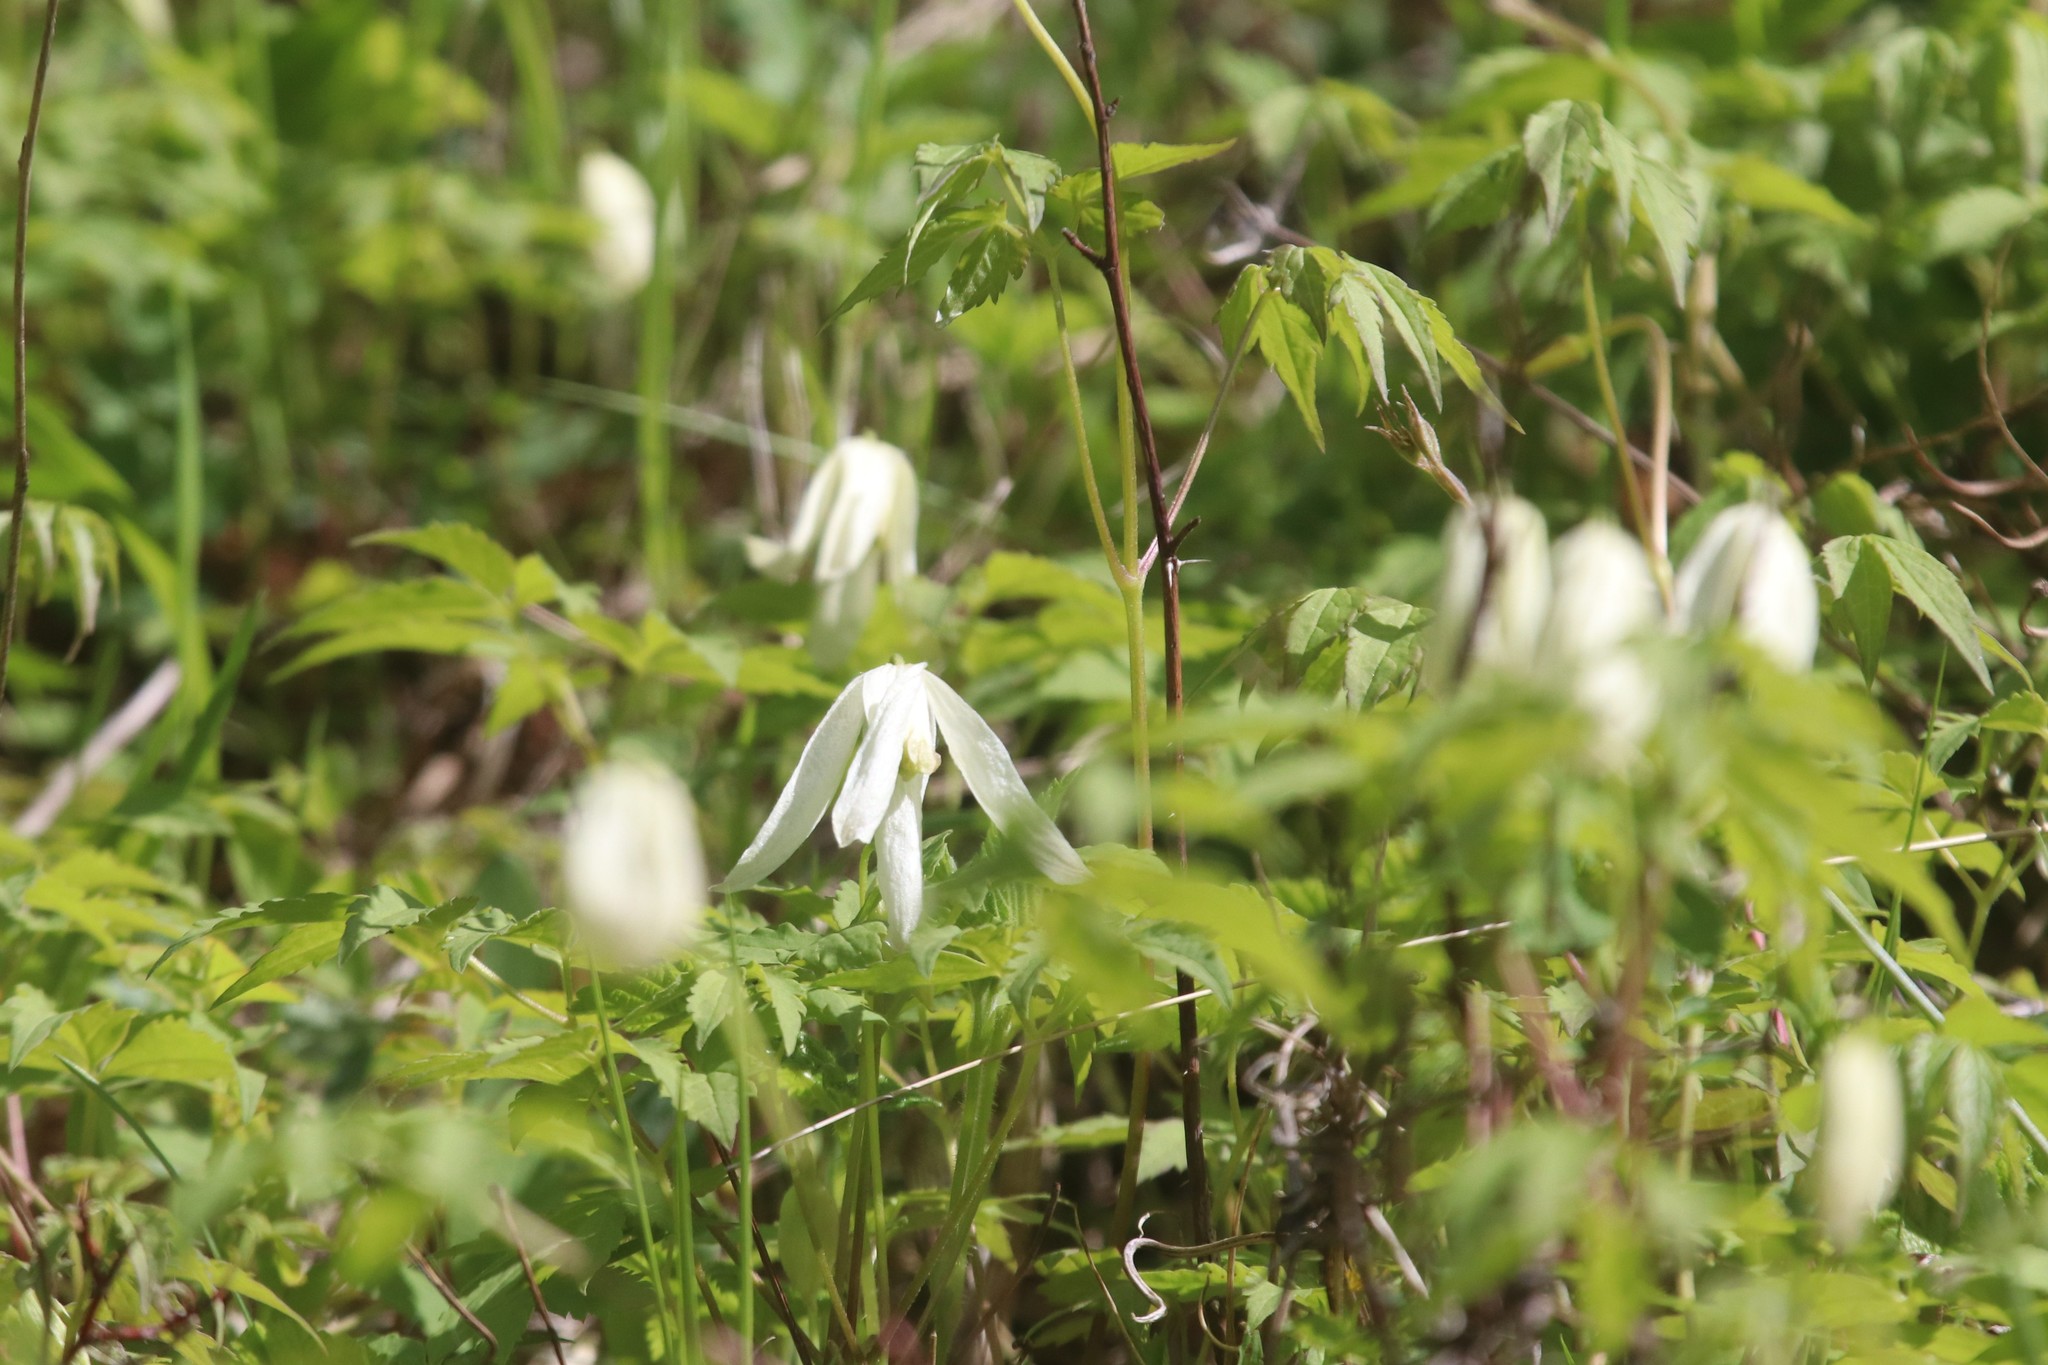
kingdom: Plantae
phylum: Tracheophyta
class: Magnoliopsida
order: Ranunculales
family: Ranunculaceae
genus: Clematis
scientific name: Clematis sibirica
